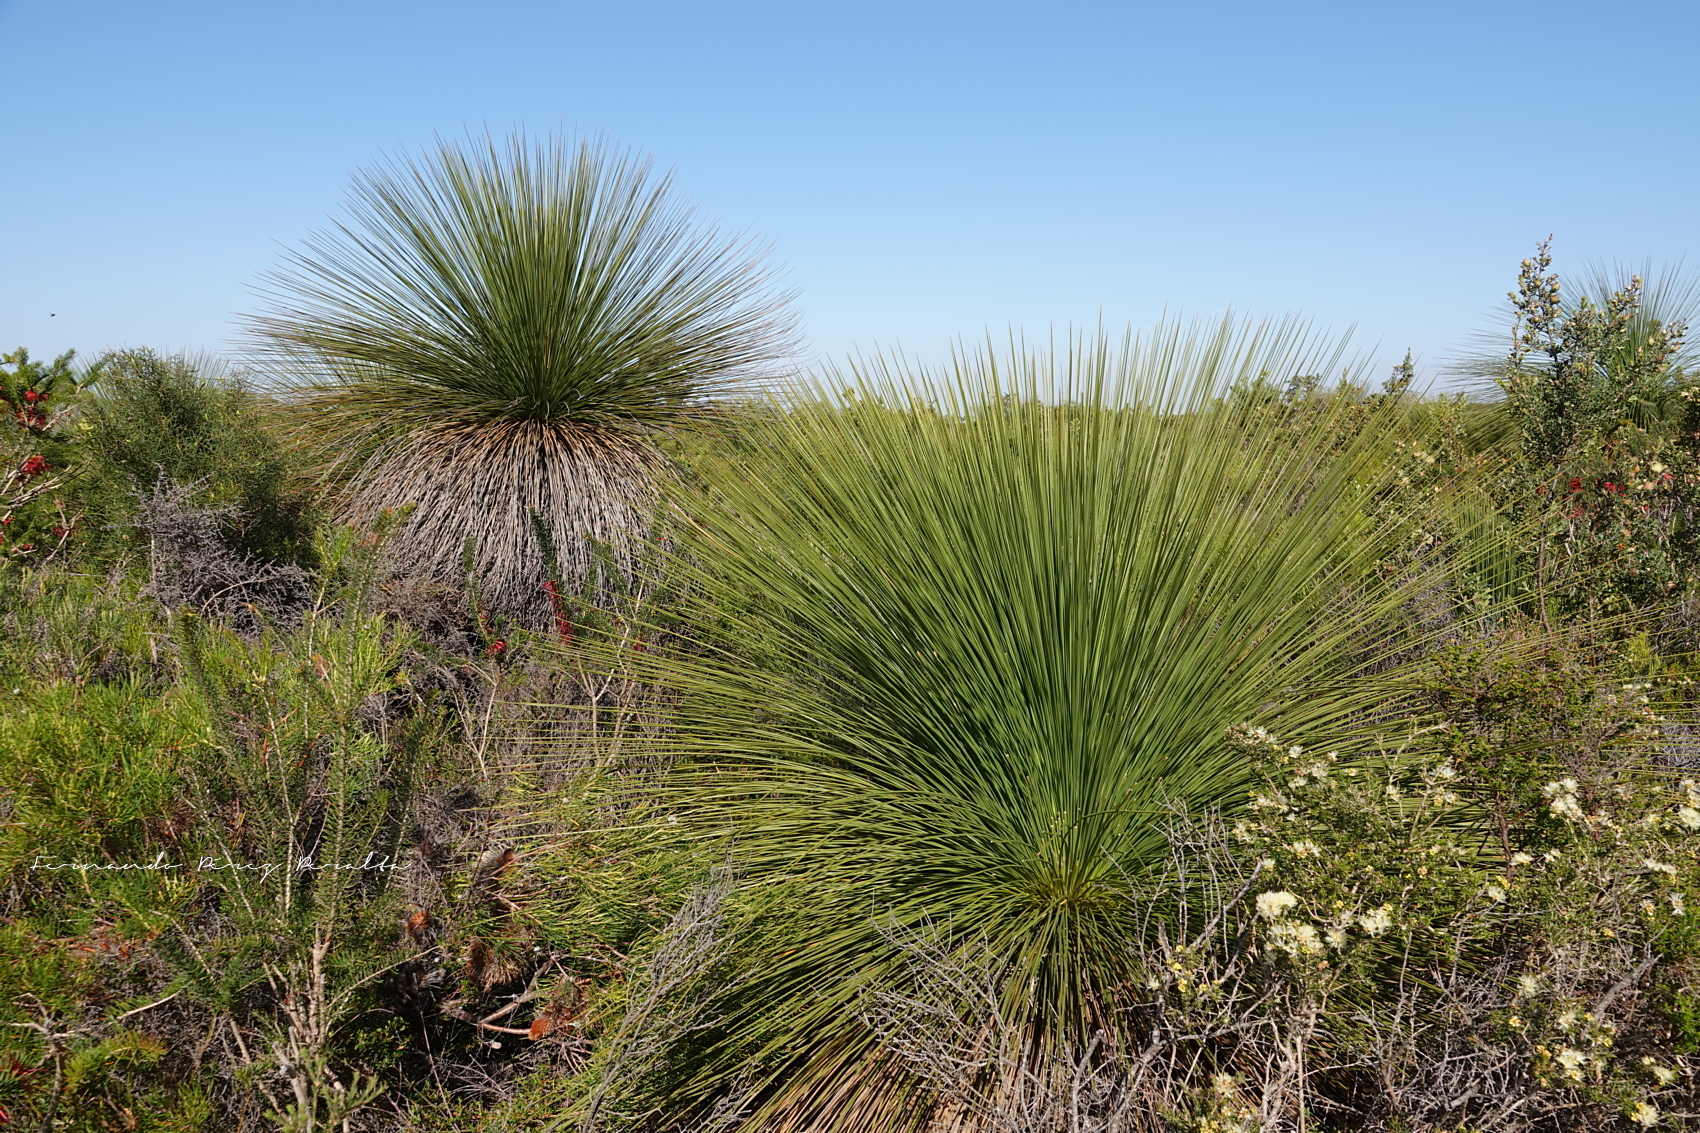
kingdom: Plantae
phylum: Tracheophyta
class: Liliopsida
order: Asparagales
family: Asphodelaceae
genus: Xanthorrhoea
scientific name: Xanthorrhoea preissii
